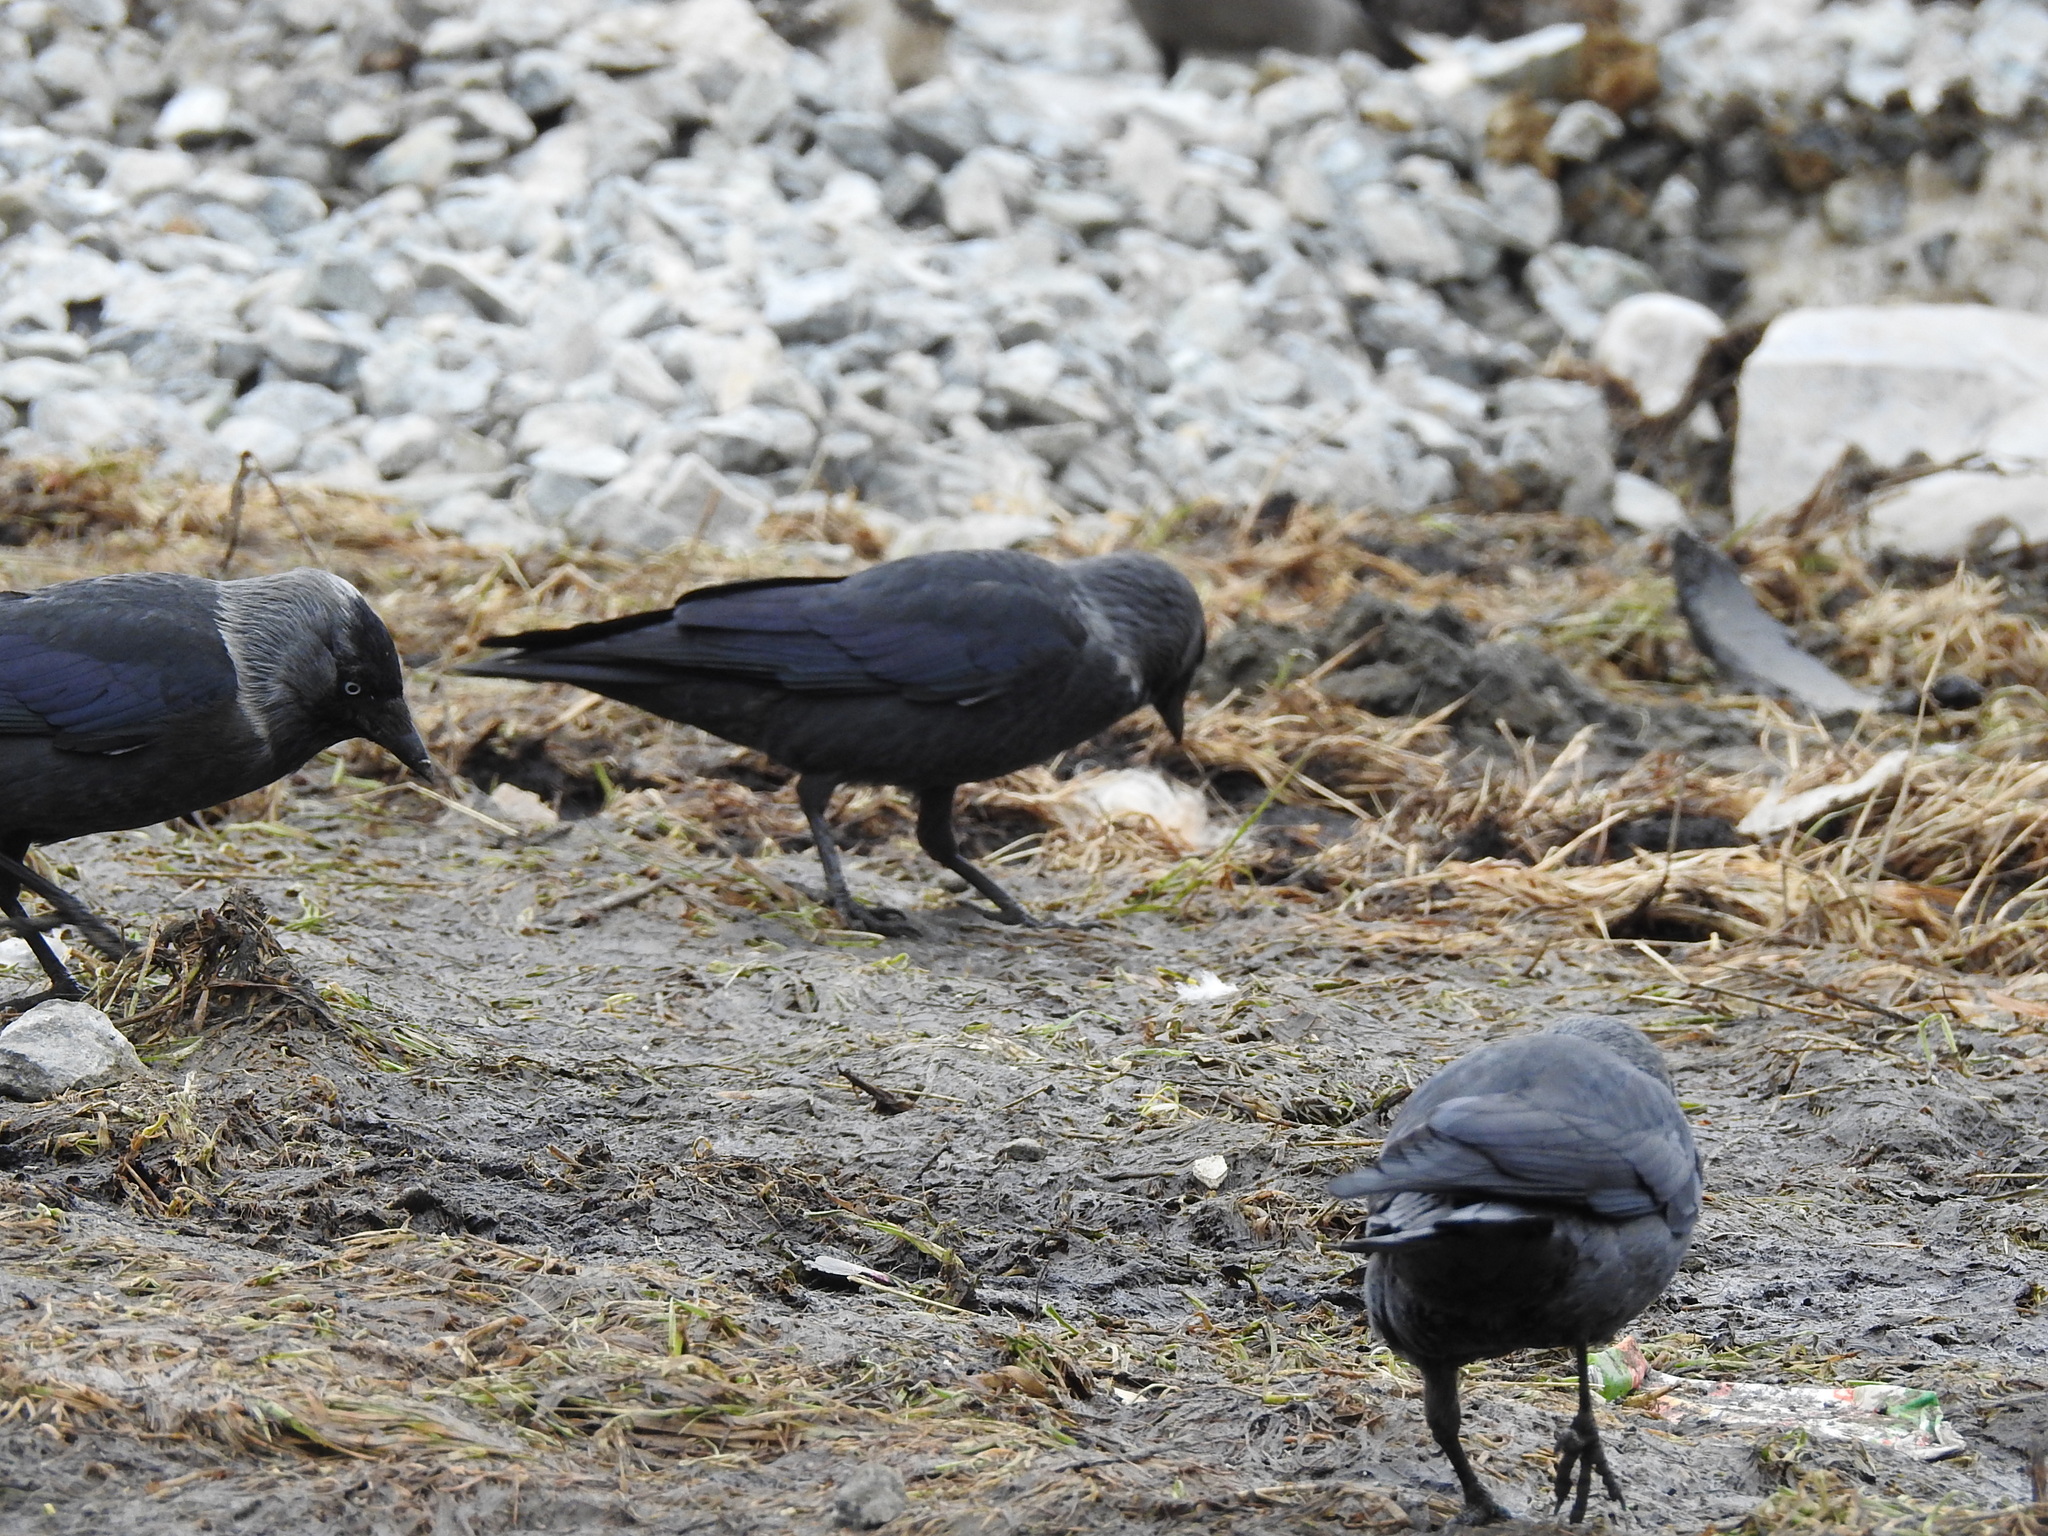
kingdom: Animalia
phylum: Chordata
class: Aves
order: Passeriformes
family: Corvidae
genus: Coloeus
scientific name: Coloeus monedula
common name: Western jackdaw
